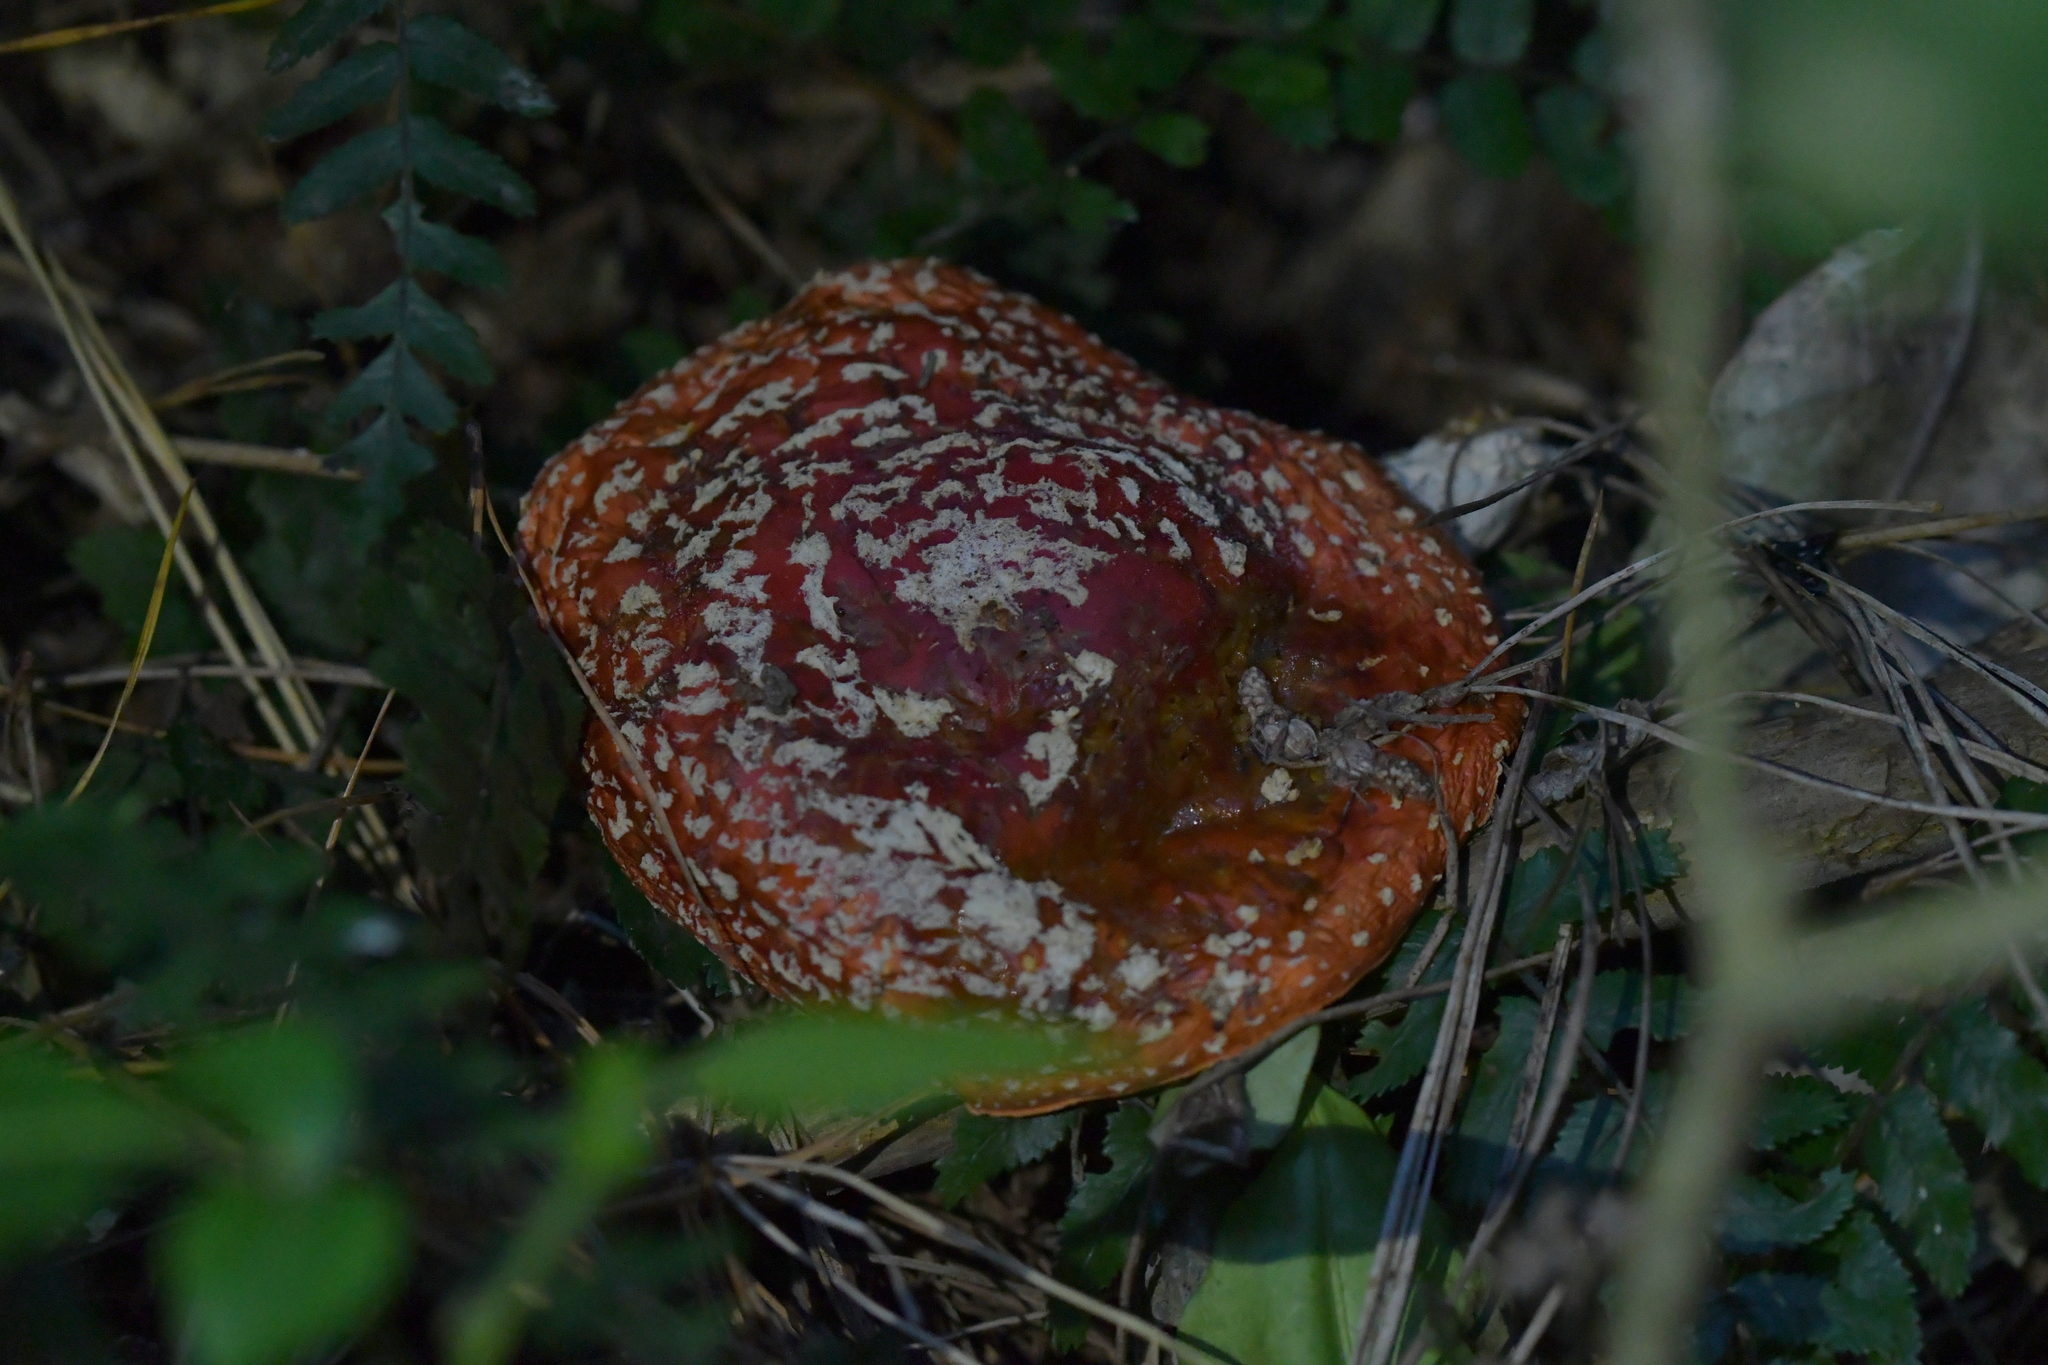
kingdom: Fungi
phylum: Basidiomycota
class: Agaricomycetes
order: Agaricales
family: Amanitaceae
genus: Amanita
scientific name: Amanita muscaria
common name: Fly agaric
